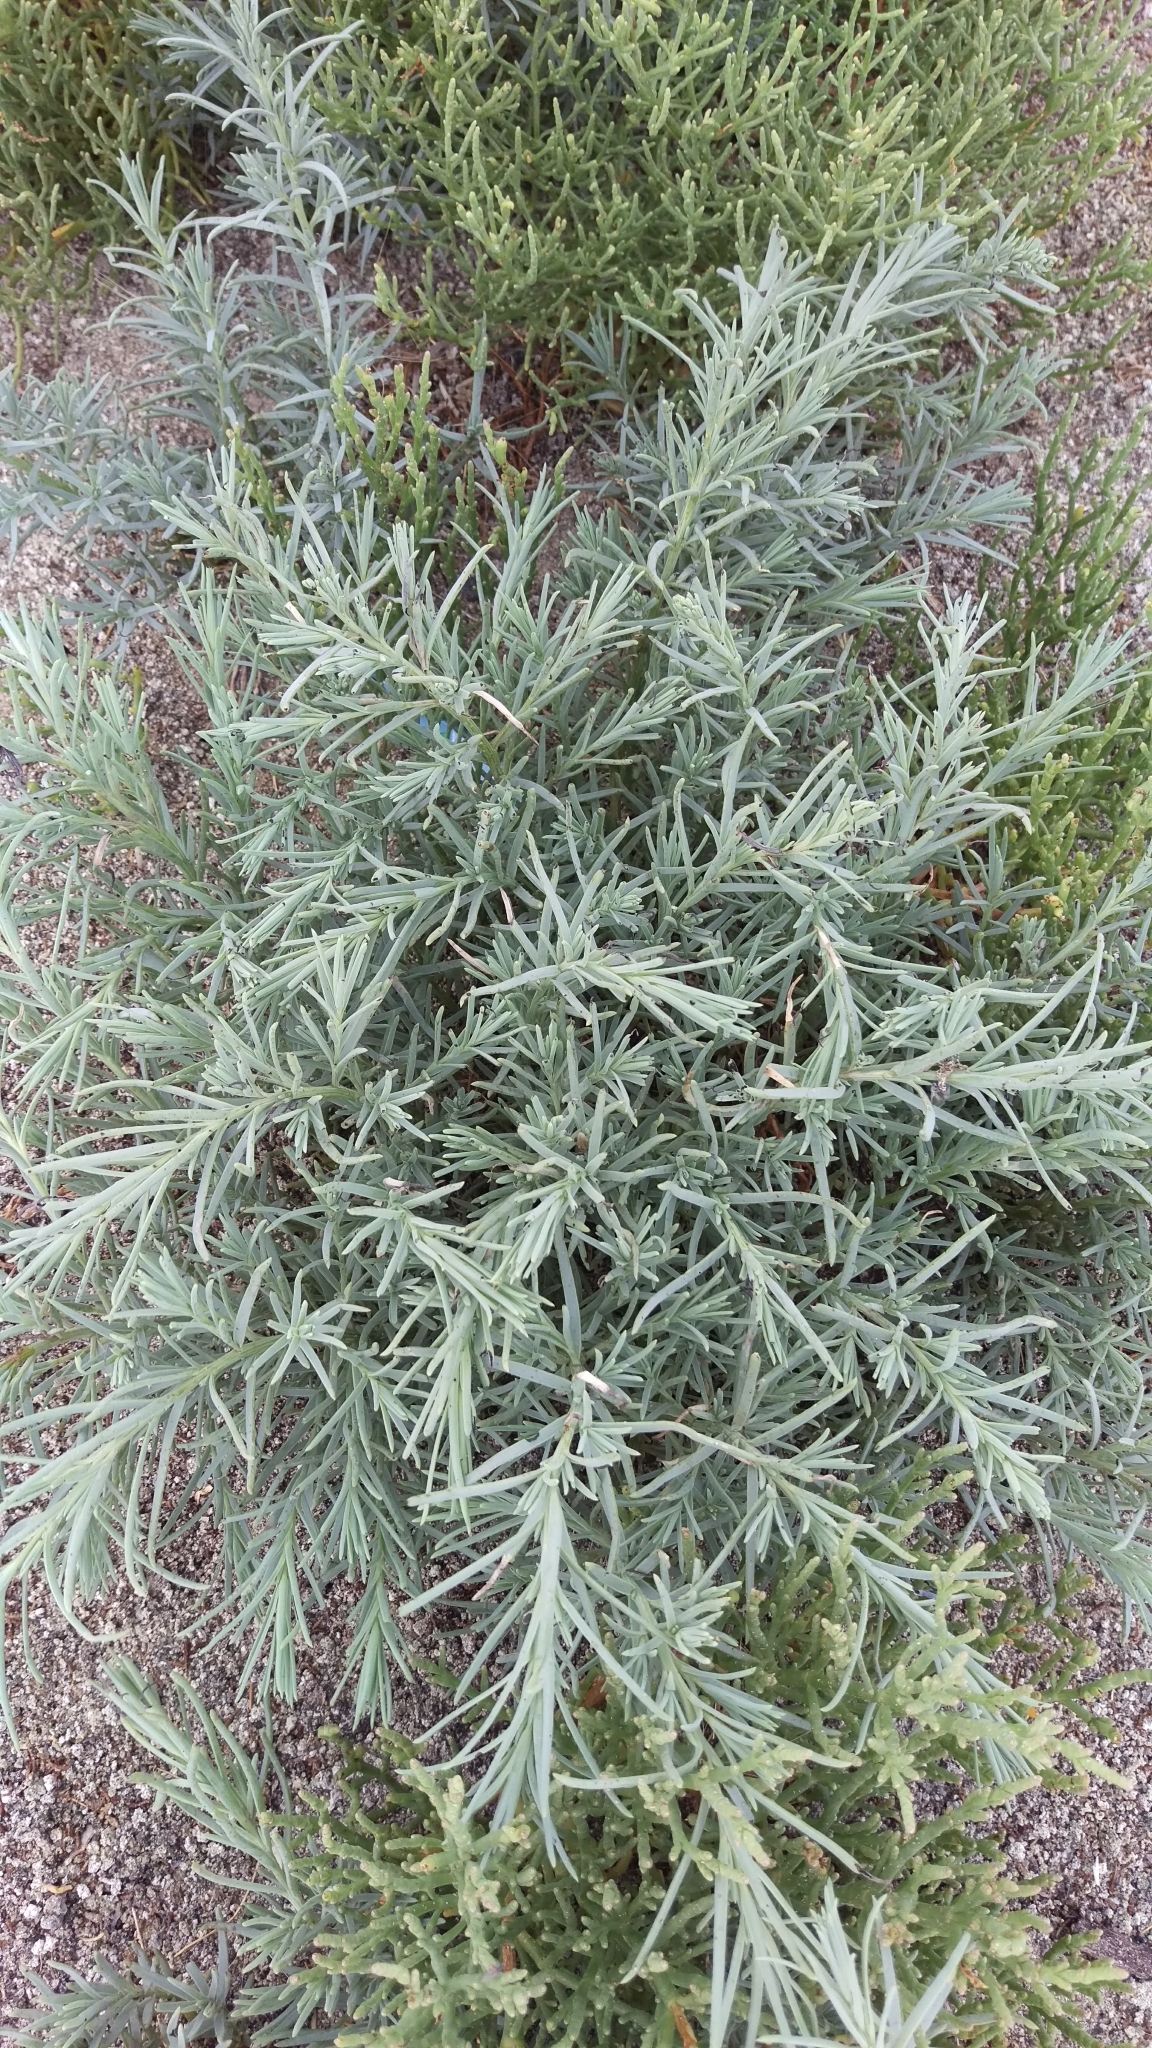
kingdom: Plantae
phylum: Tracheophyta
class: Magnoliopsida
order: Asterales
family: Asteraceae
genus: Artemisia
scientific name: Artemisia ludoviciana
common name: Western mugwort
